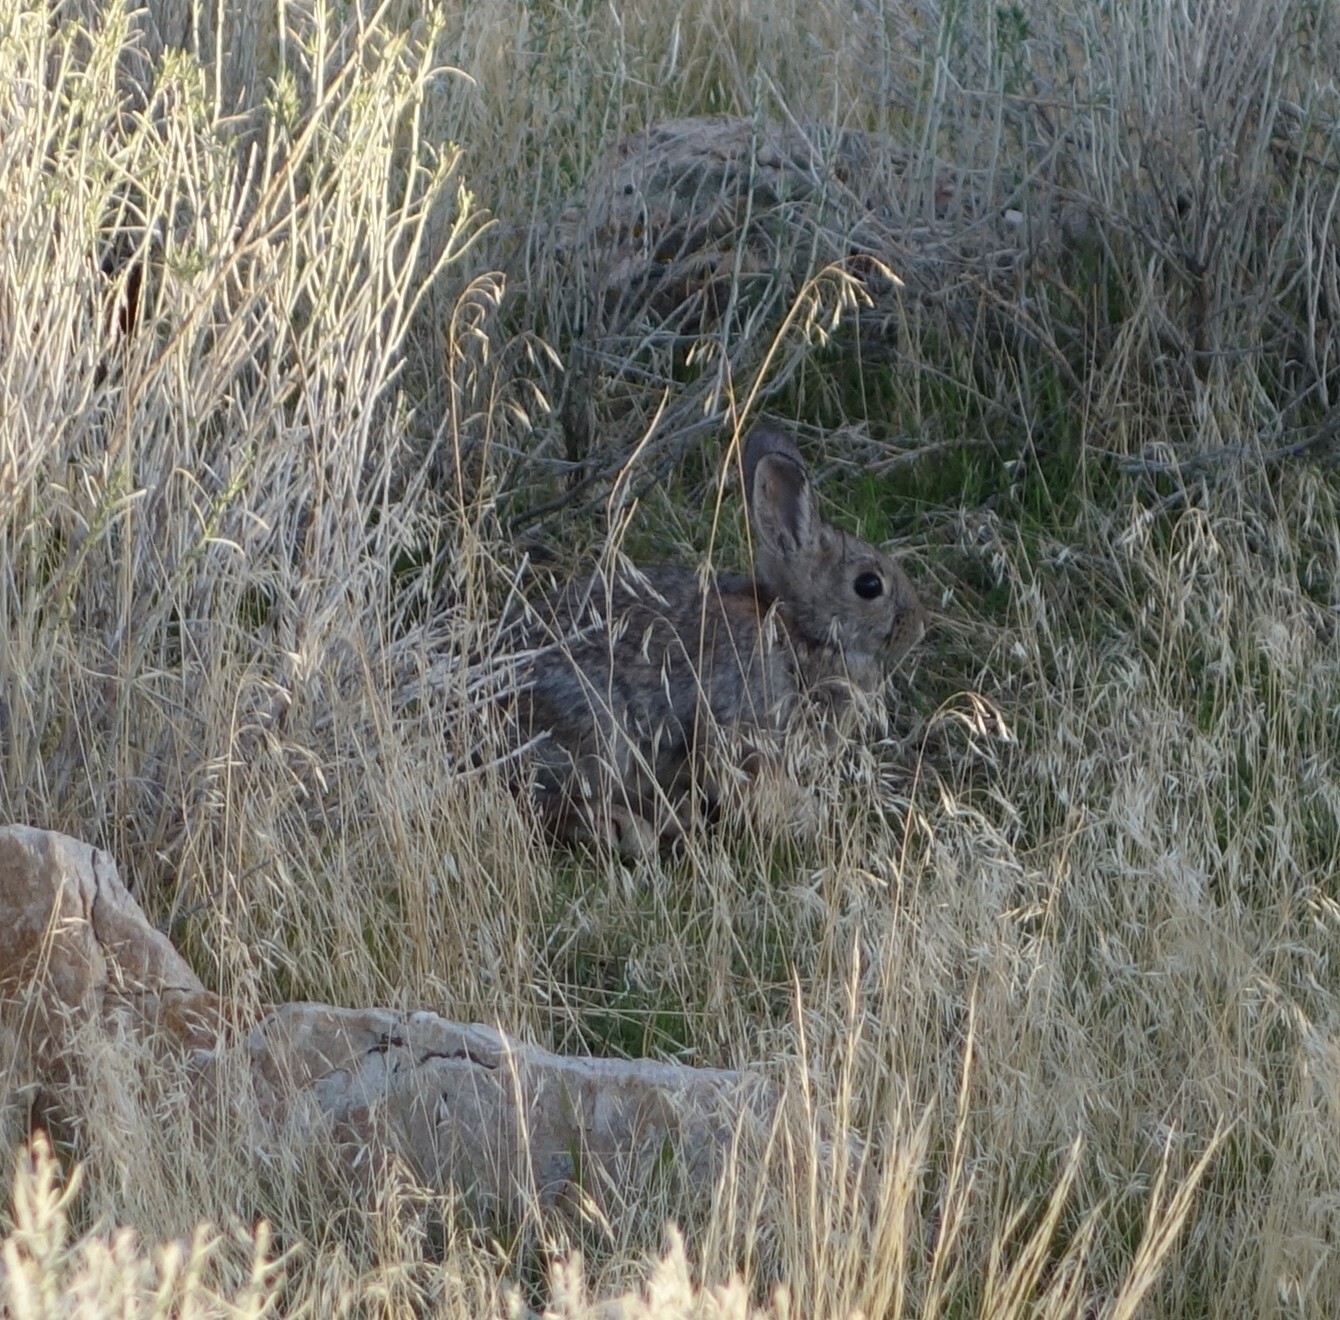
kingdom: Animalia
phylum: Chordata
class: Mammalia
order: Lagomorpha
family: Leporidae
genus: Sylvilagus
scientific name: Sylvilagus nuttallii
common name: Mountain cottontail
